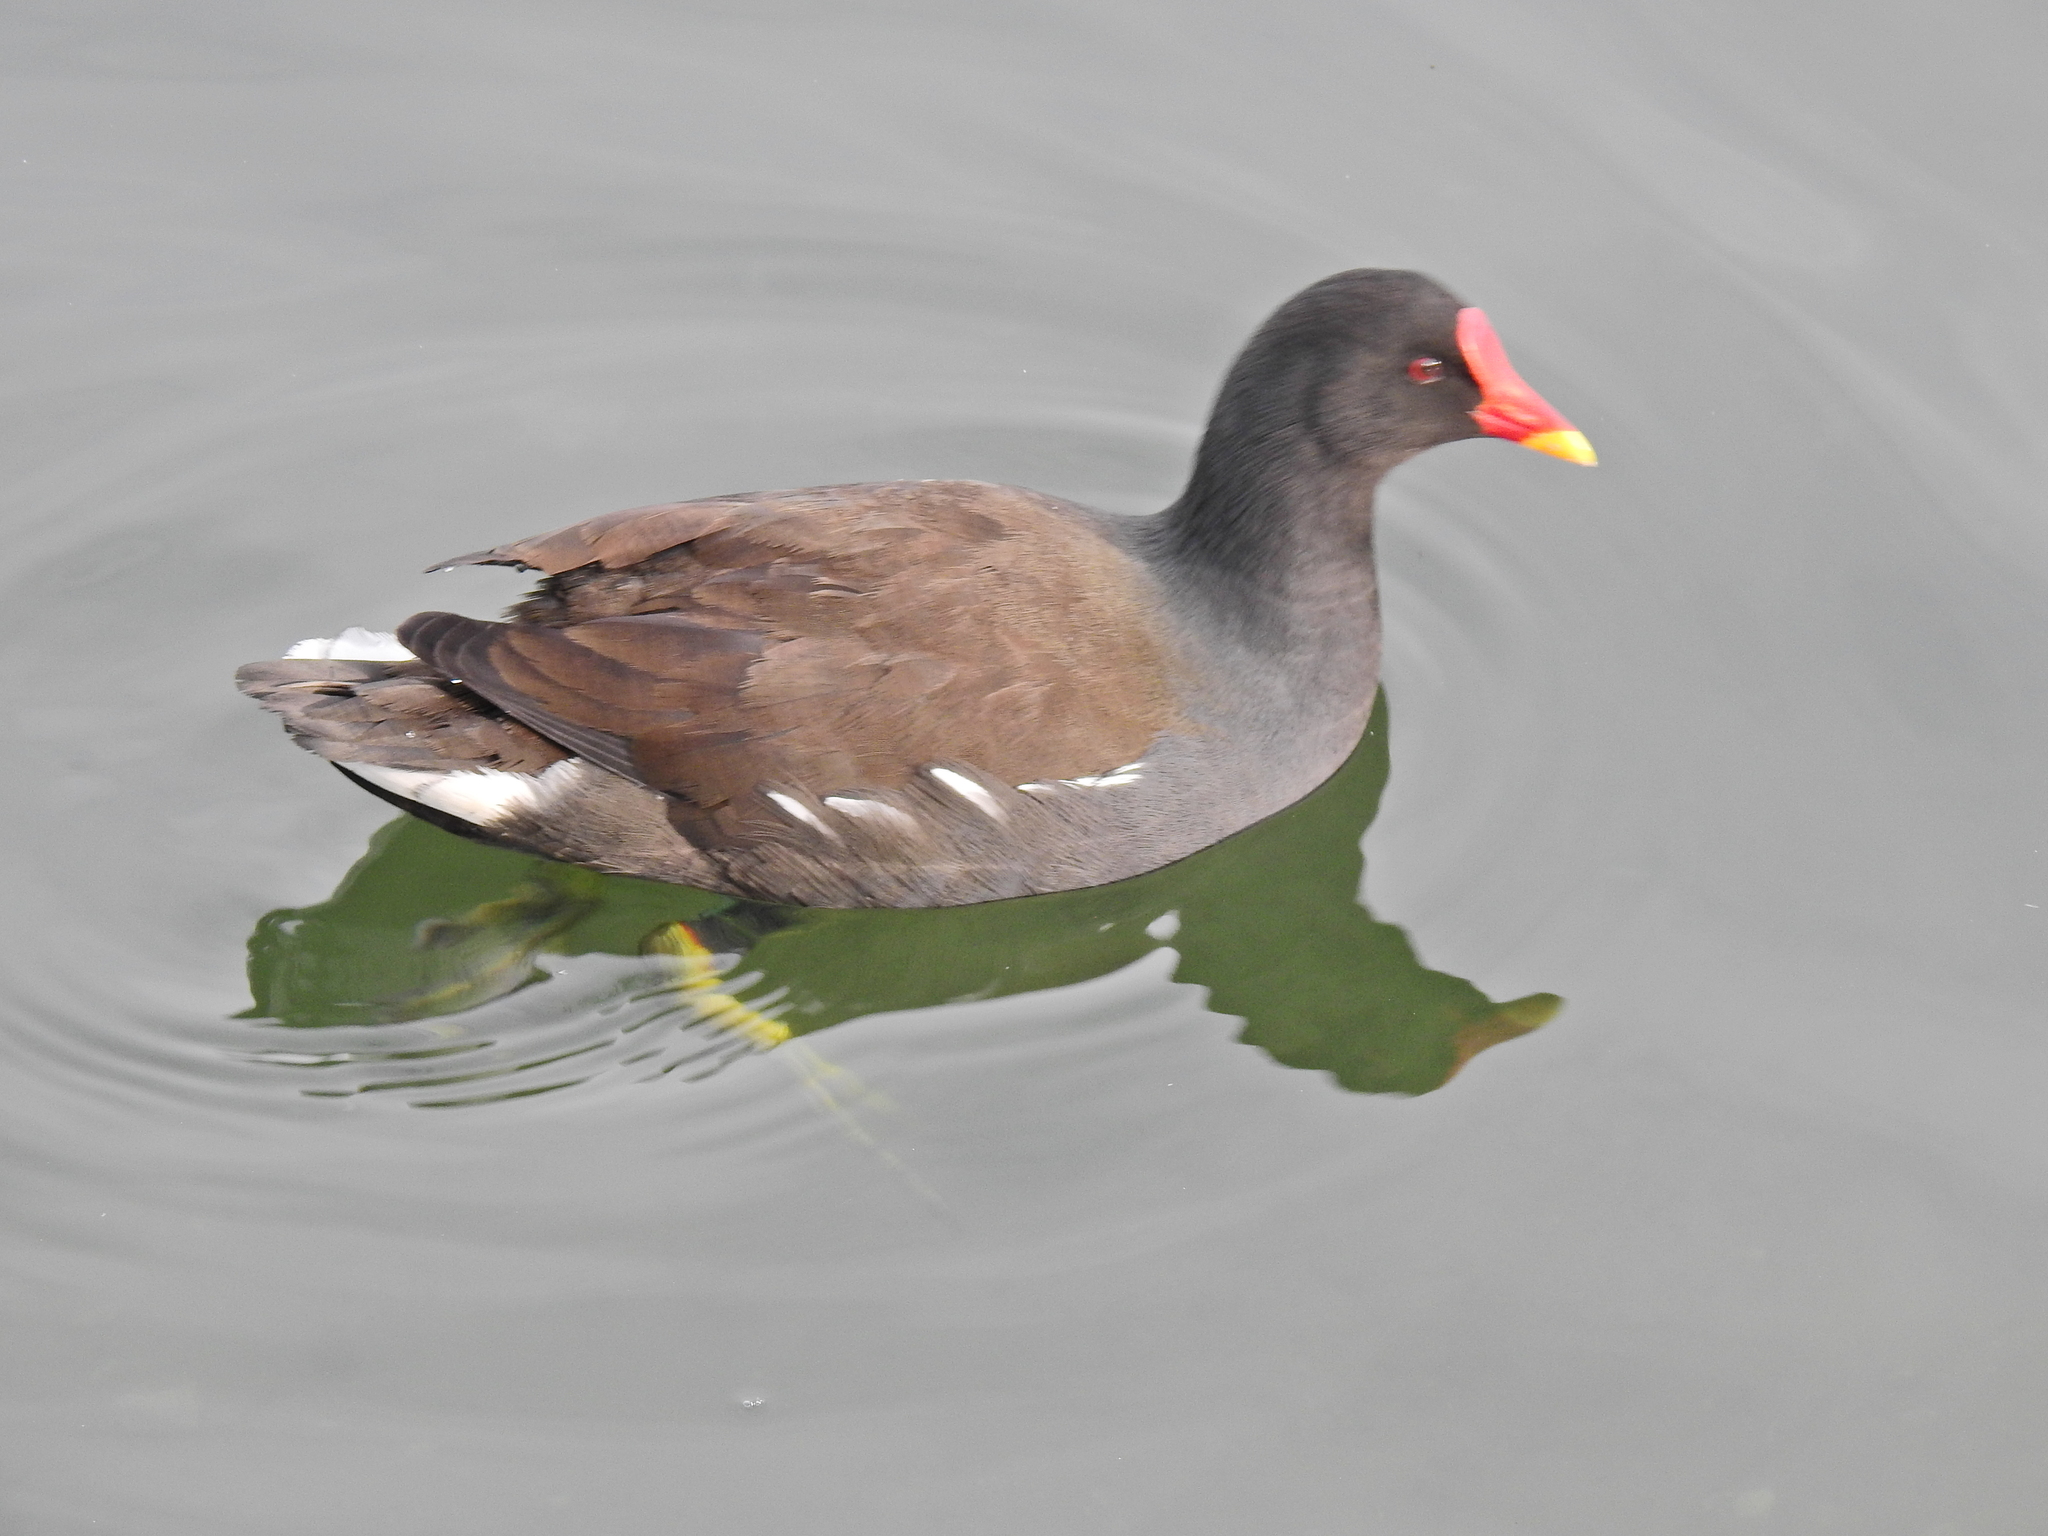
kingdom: Animalia
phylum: Chordata
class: Aves
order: Gruiformes
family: Rallidae
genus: Gallinula
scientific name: Gallinula chloropus
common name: Common moorhen
